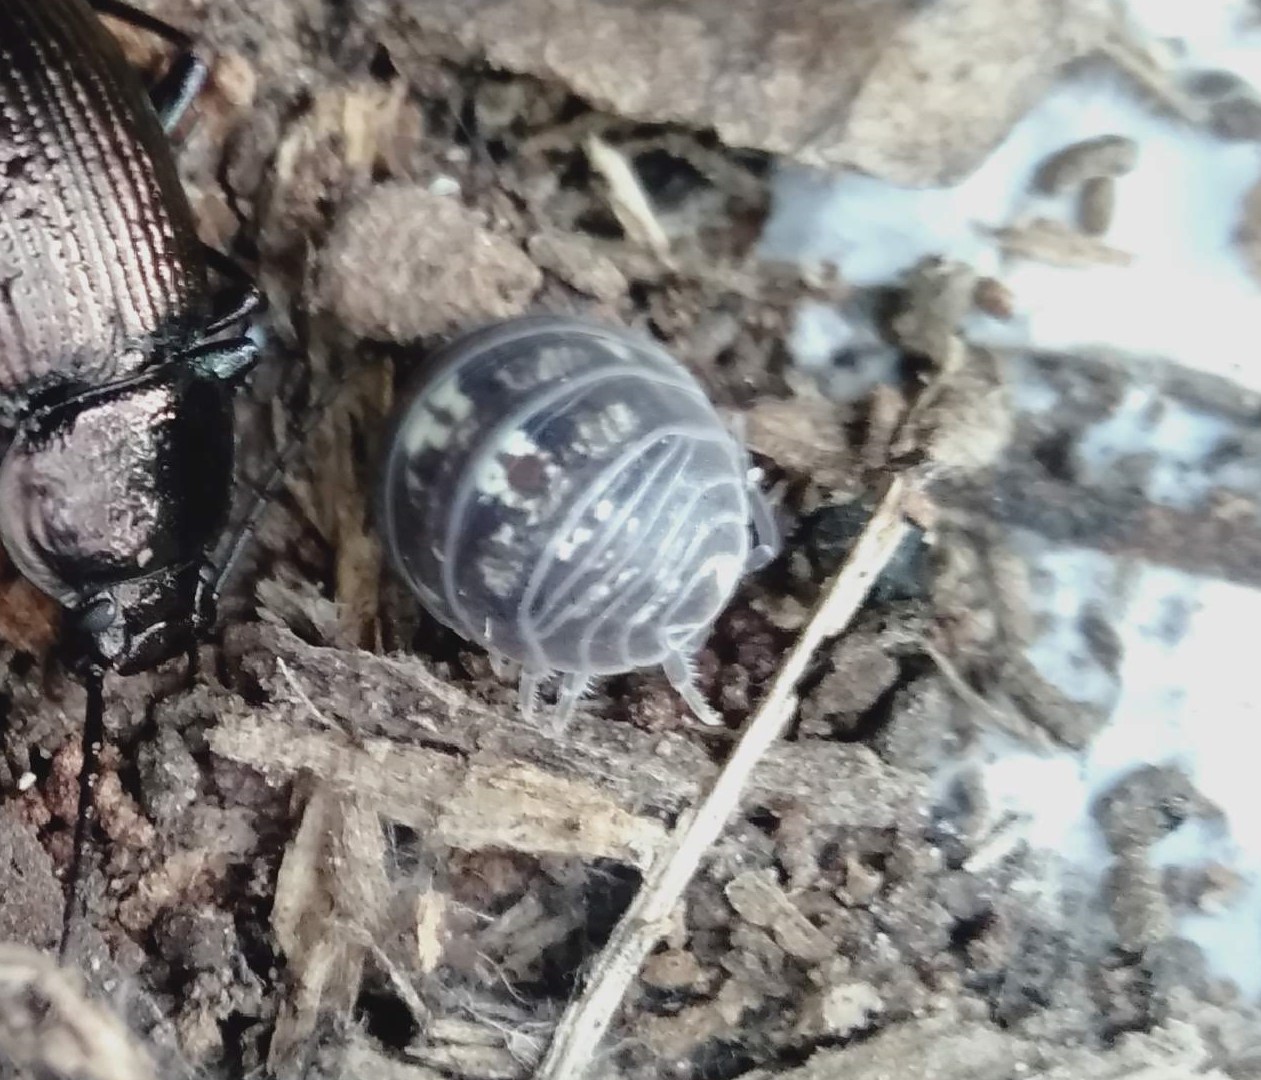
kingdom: Animalia
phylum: Arthropoda
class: Malacostraca
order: Isopoda
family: Armadillidiidae
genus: Armadillidium
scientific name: Armadillidium vulgare
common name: Common pill woodlouse
